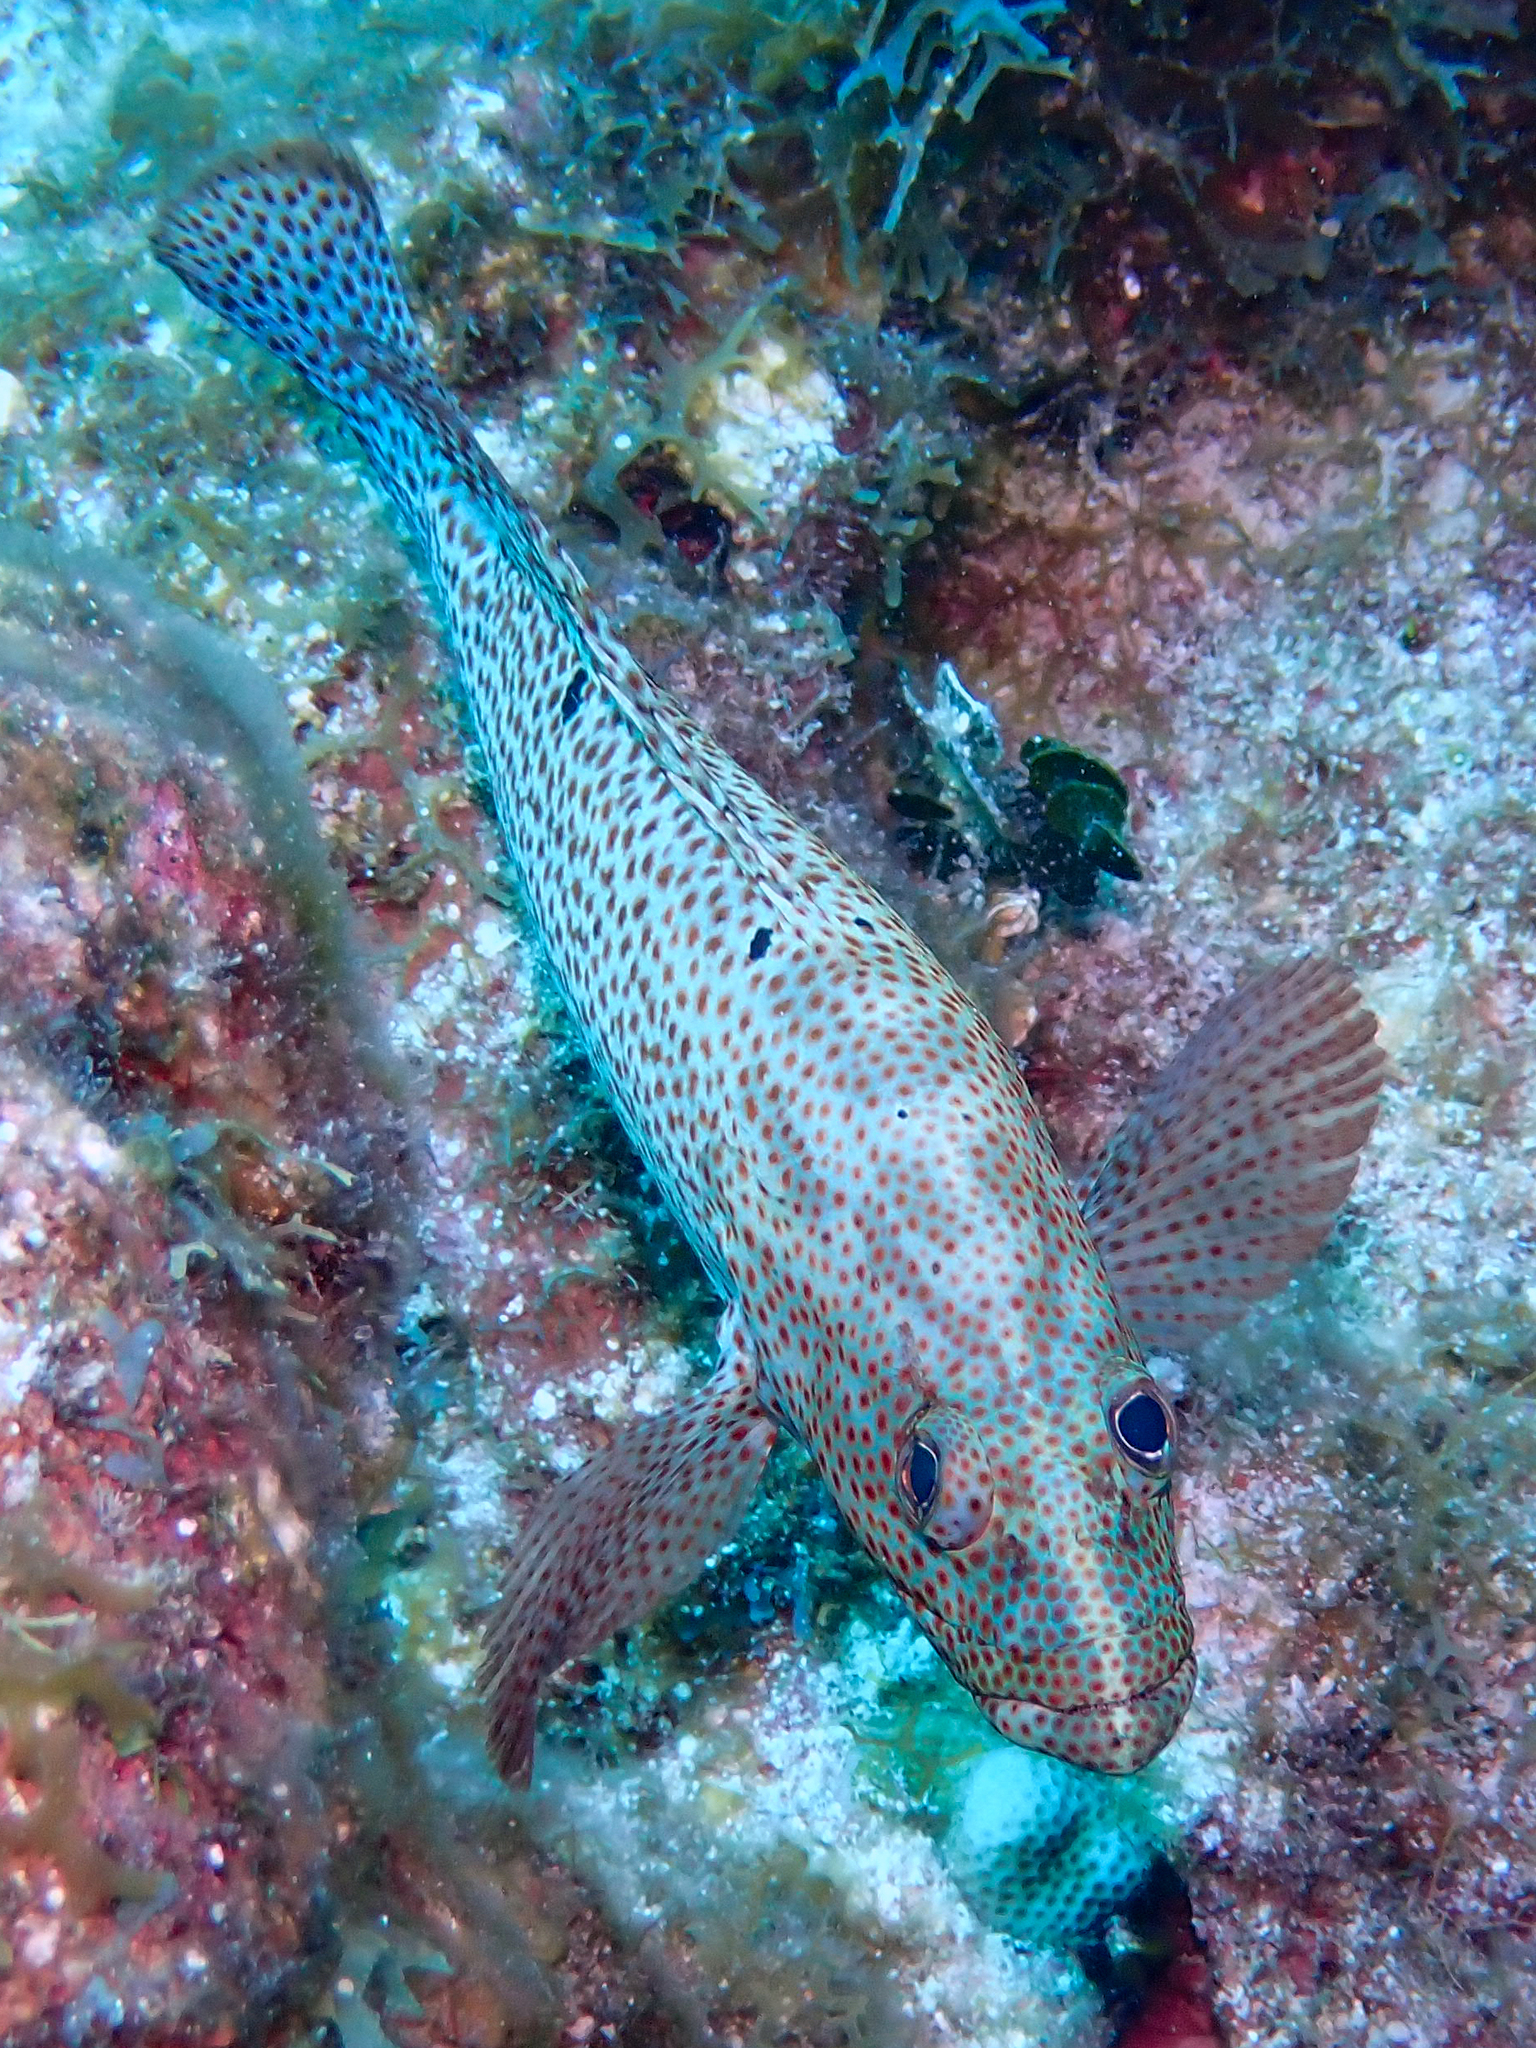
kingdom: Animalia
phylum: Chordata
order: Perciformes
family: Serranidae
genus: Cephalopholis
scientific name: Cephalopholis cruentata
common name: Graysby
